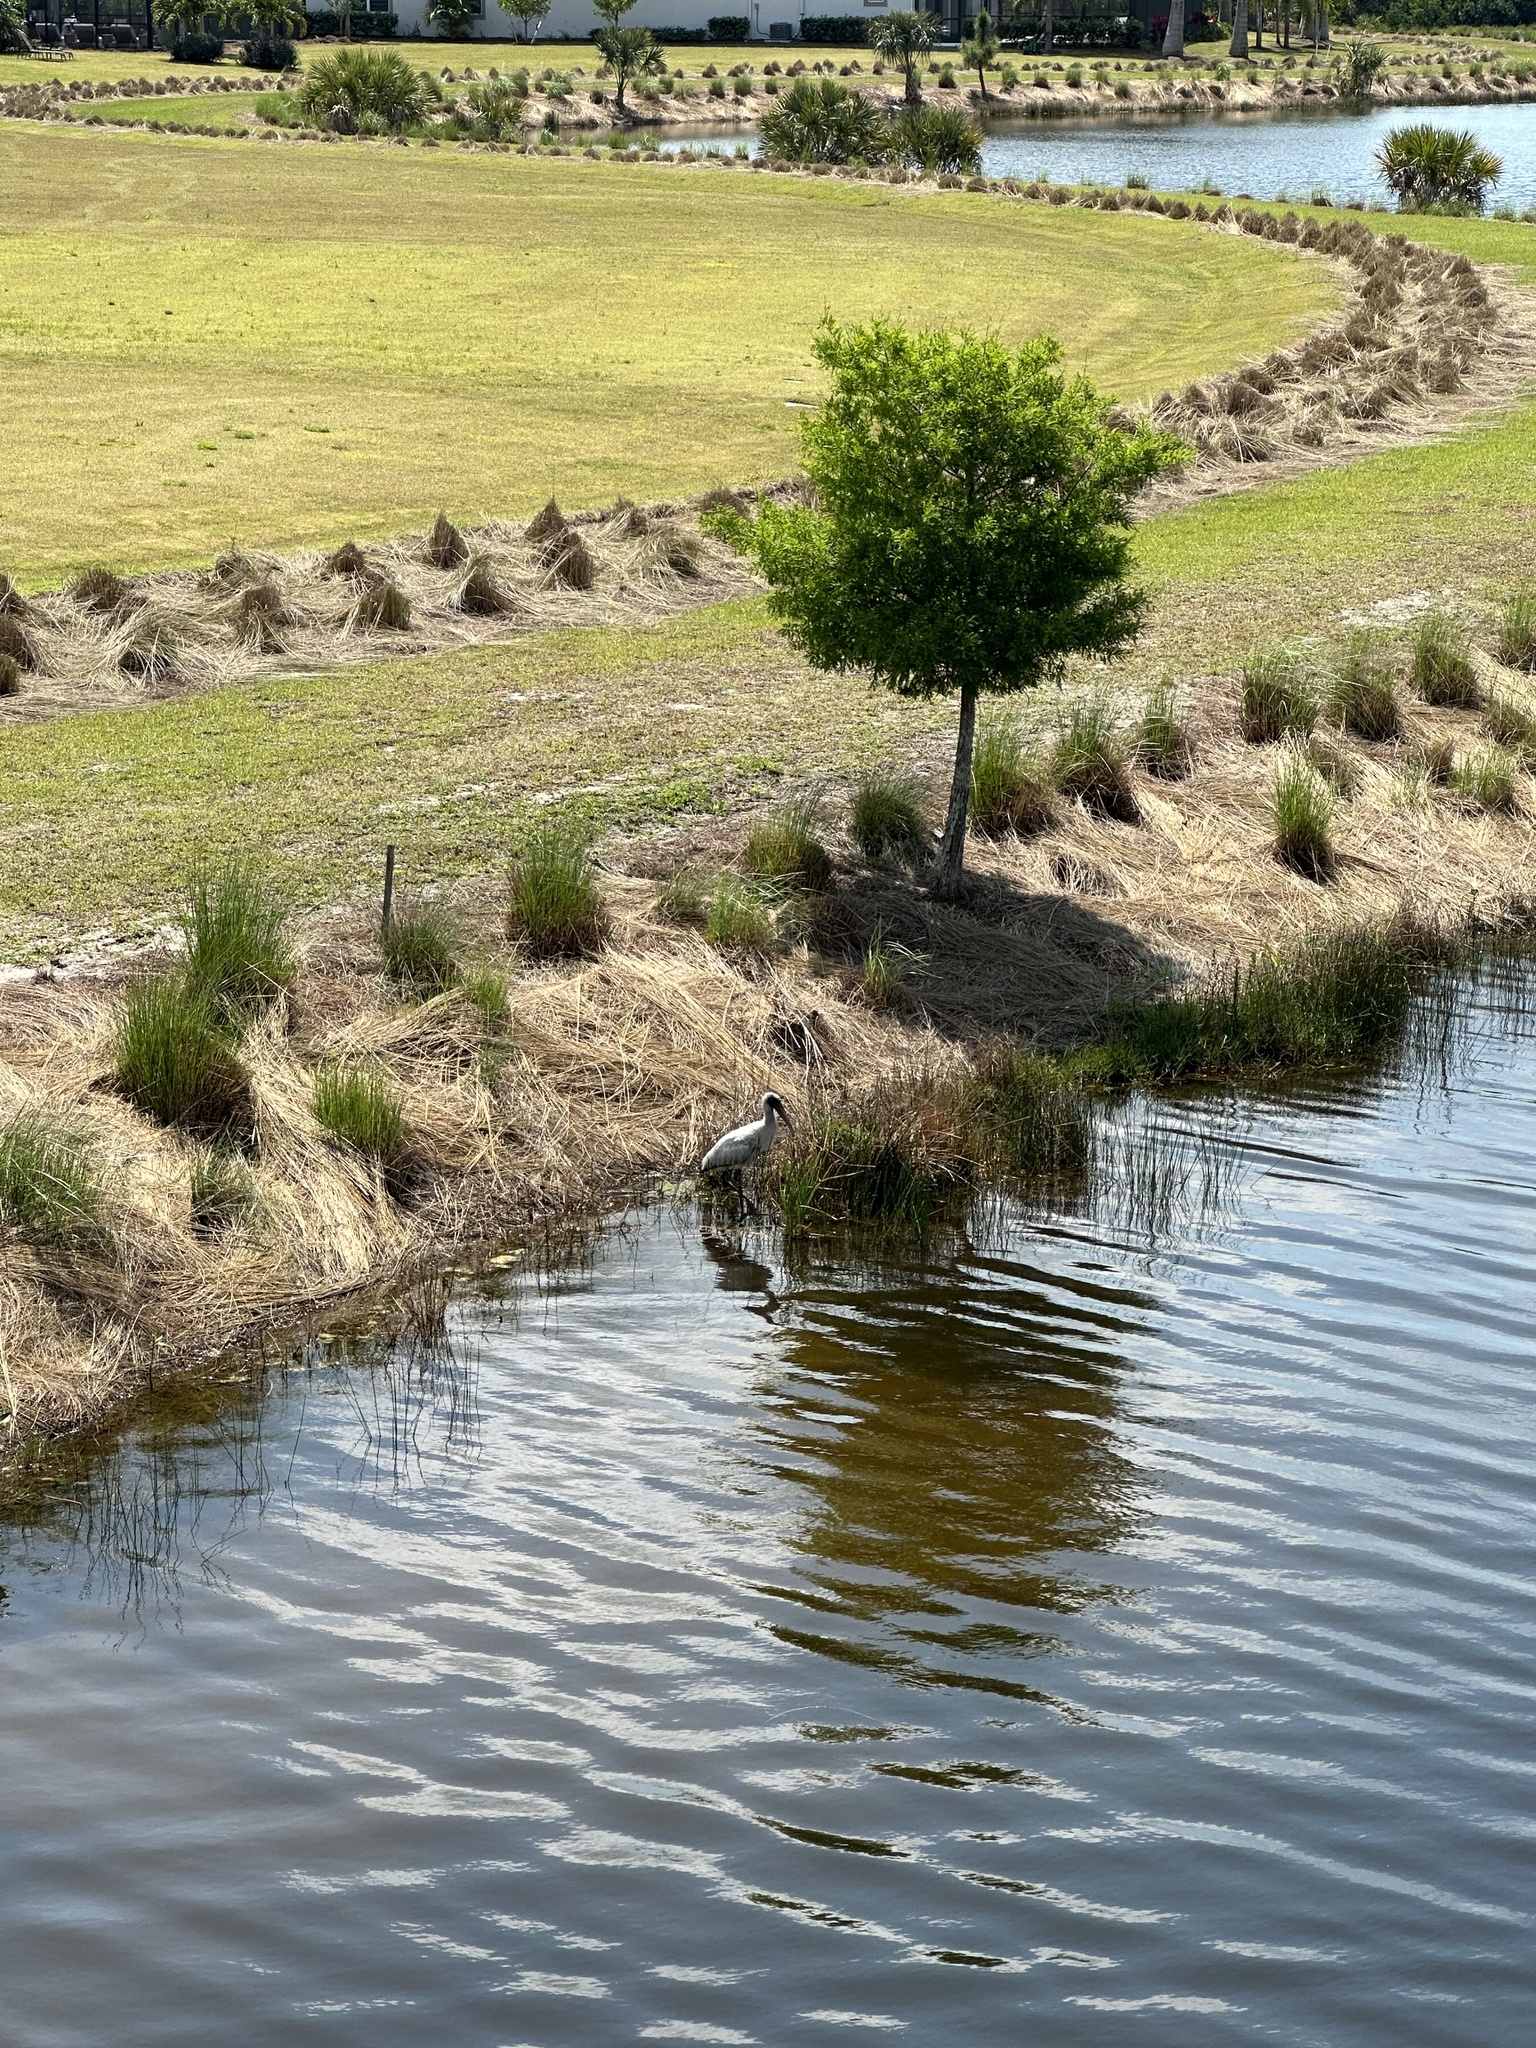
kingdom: Animalia
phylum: Chordata
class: Aves
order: Ciconiiformes
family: Ciconiidae
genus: Mycteria
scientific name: Mycteria americana
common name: Wood stork
